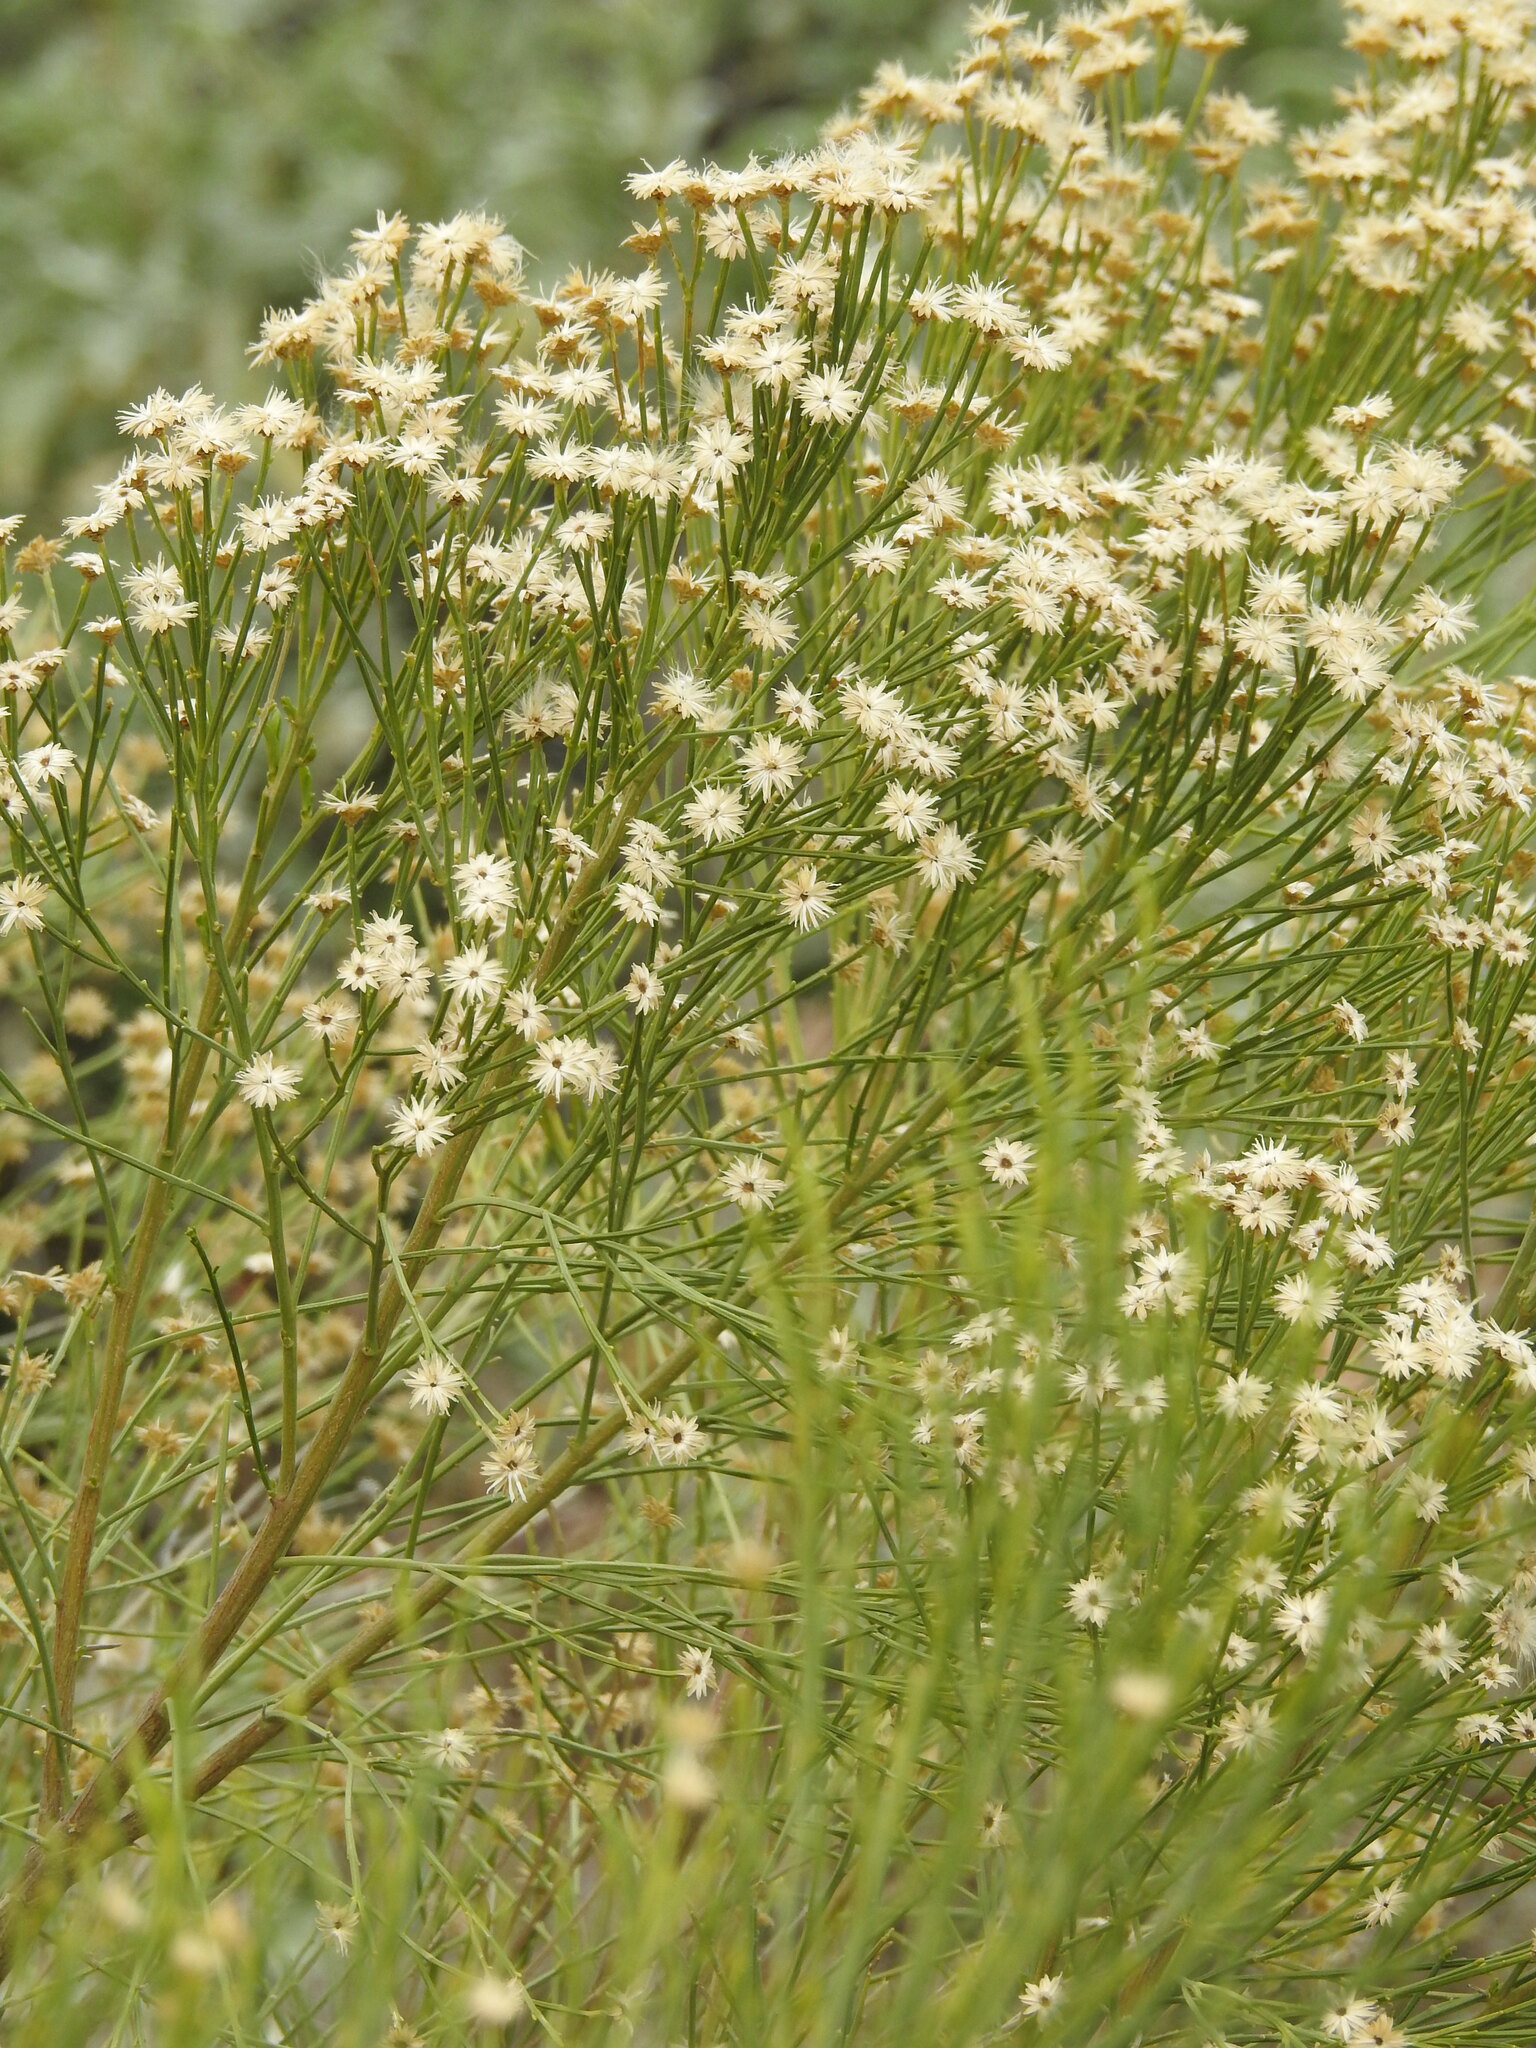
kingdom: Plantae
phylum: Tracheophyta
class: Magnoliopsida
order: Asterales
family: Asteraceae
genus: Baccharis
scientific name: Baccharis sarothroides
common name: Desert-broom
